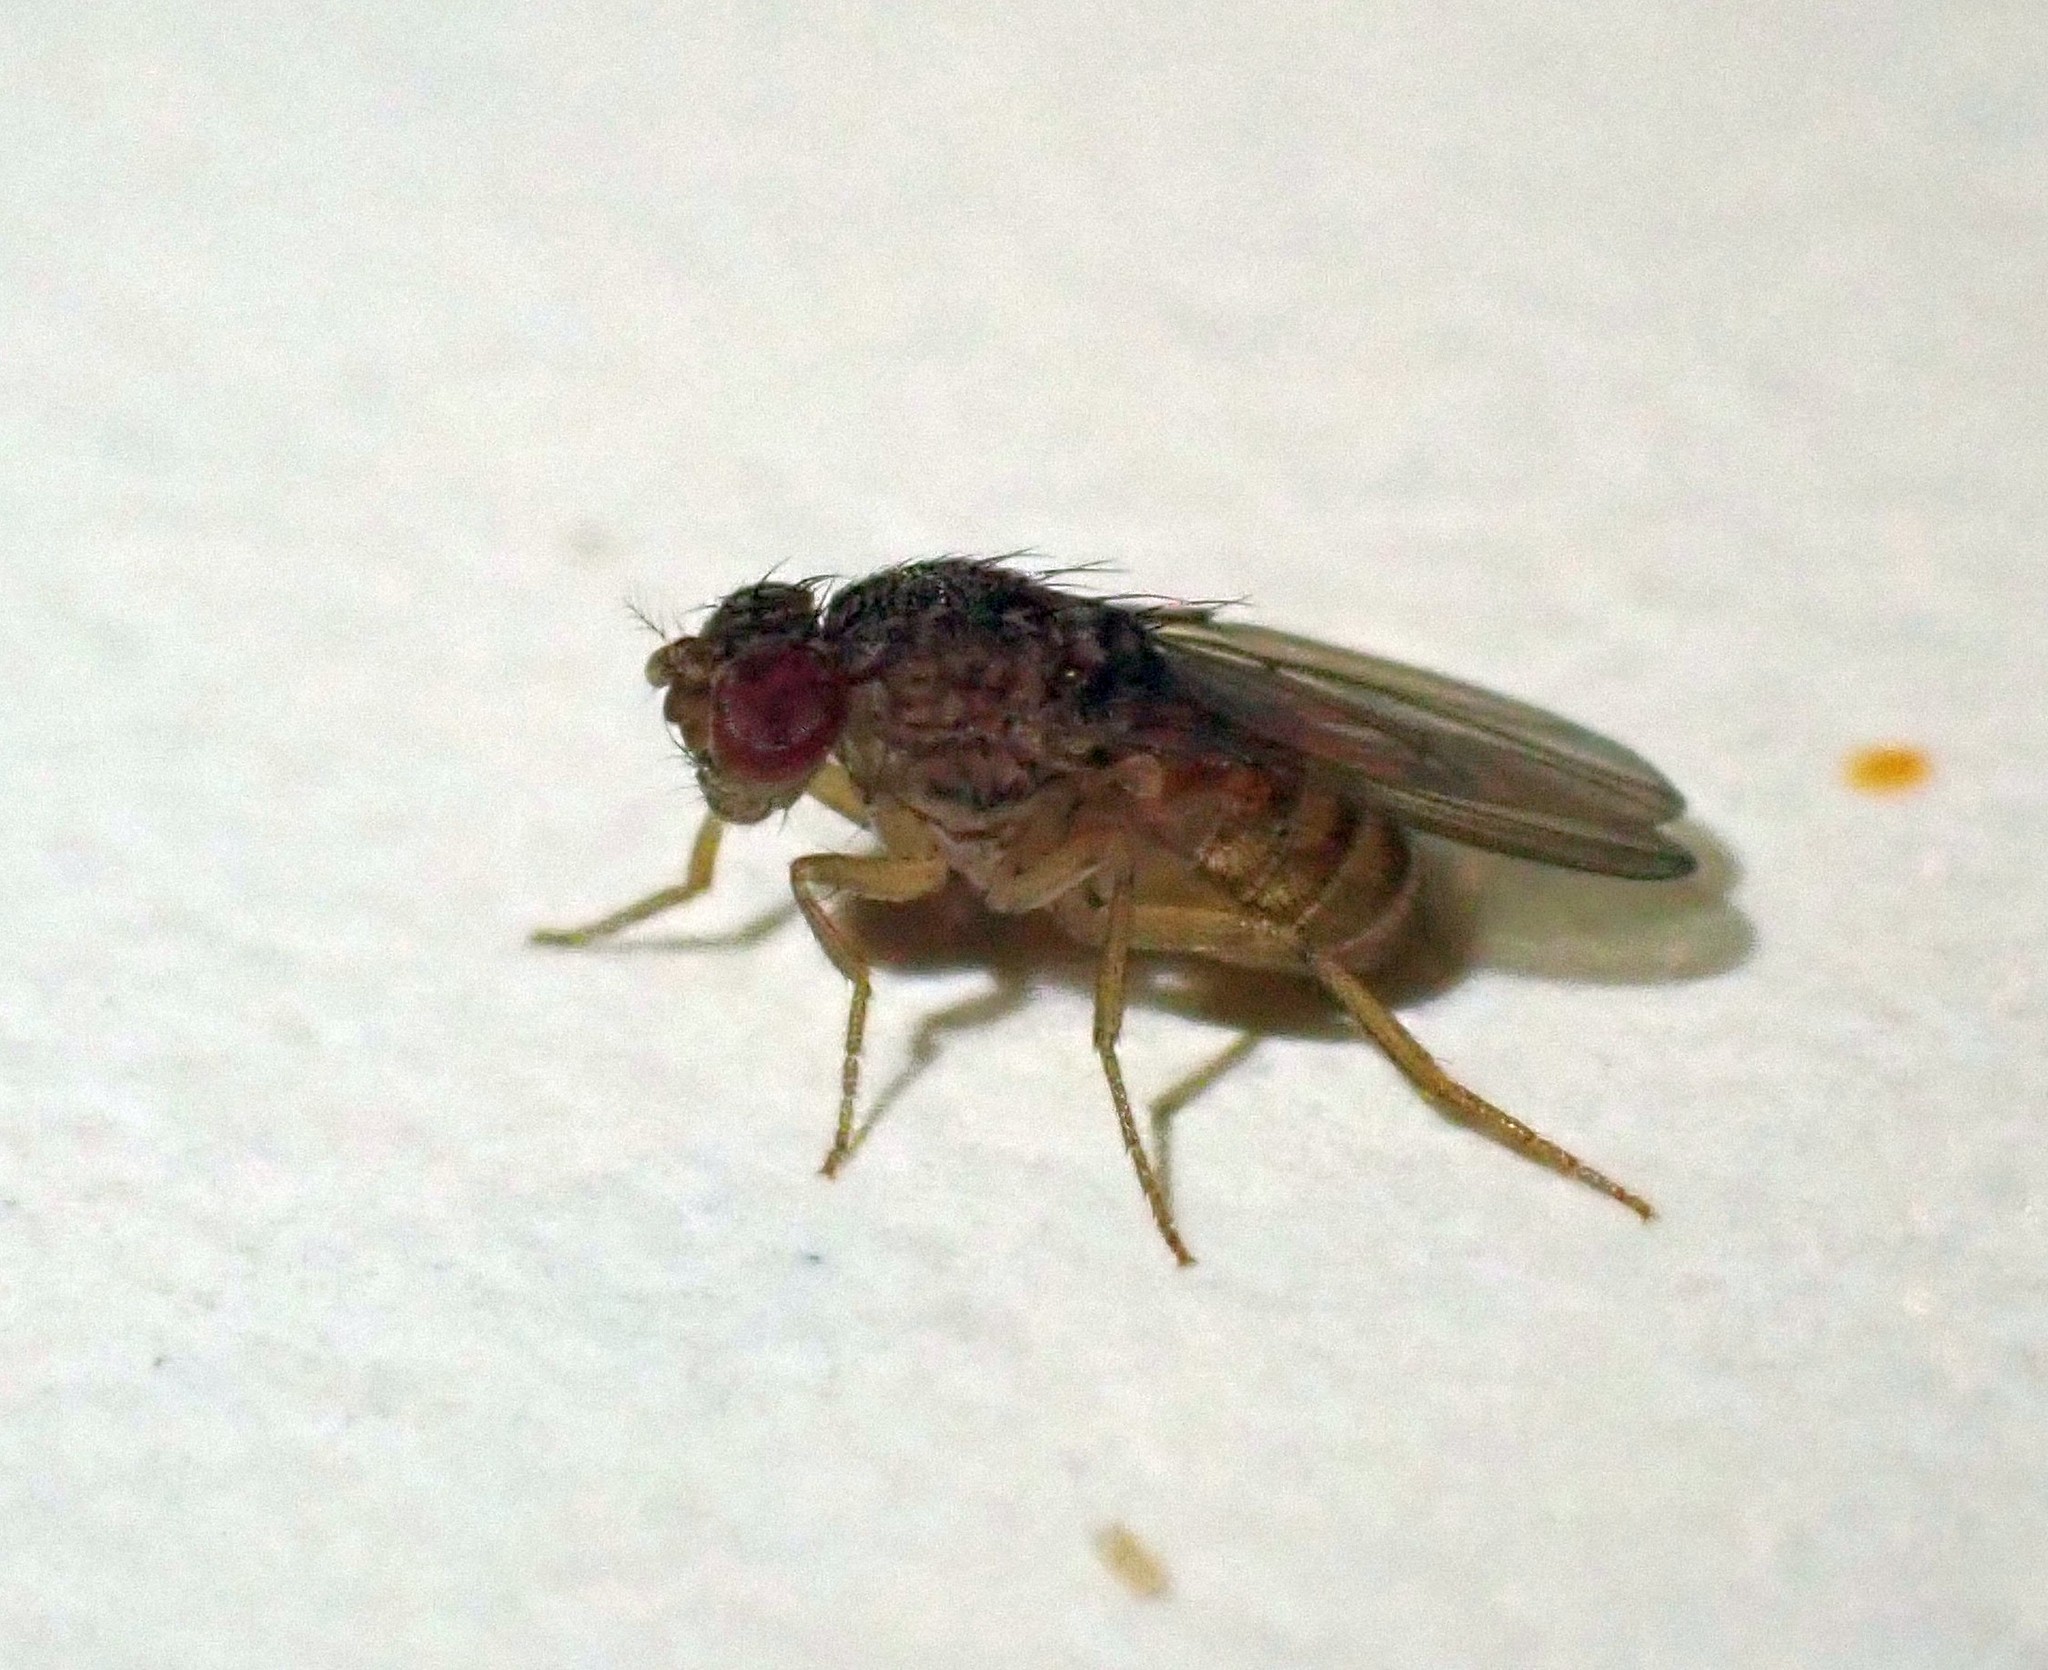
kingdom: Animalia
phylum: Arthropoda
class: Insecta
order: Diptera
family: Drosophilidae
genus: Drosophila
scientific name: Drosophila repleta
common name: Pomace fly
